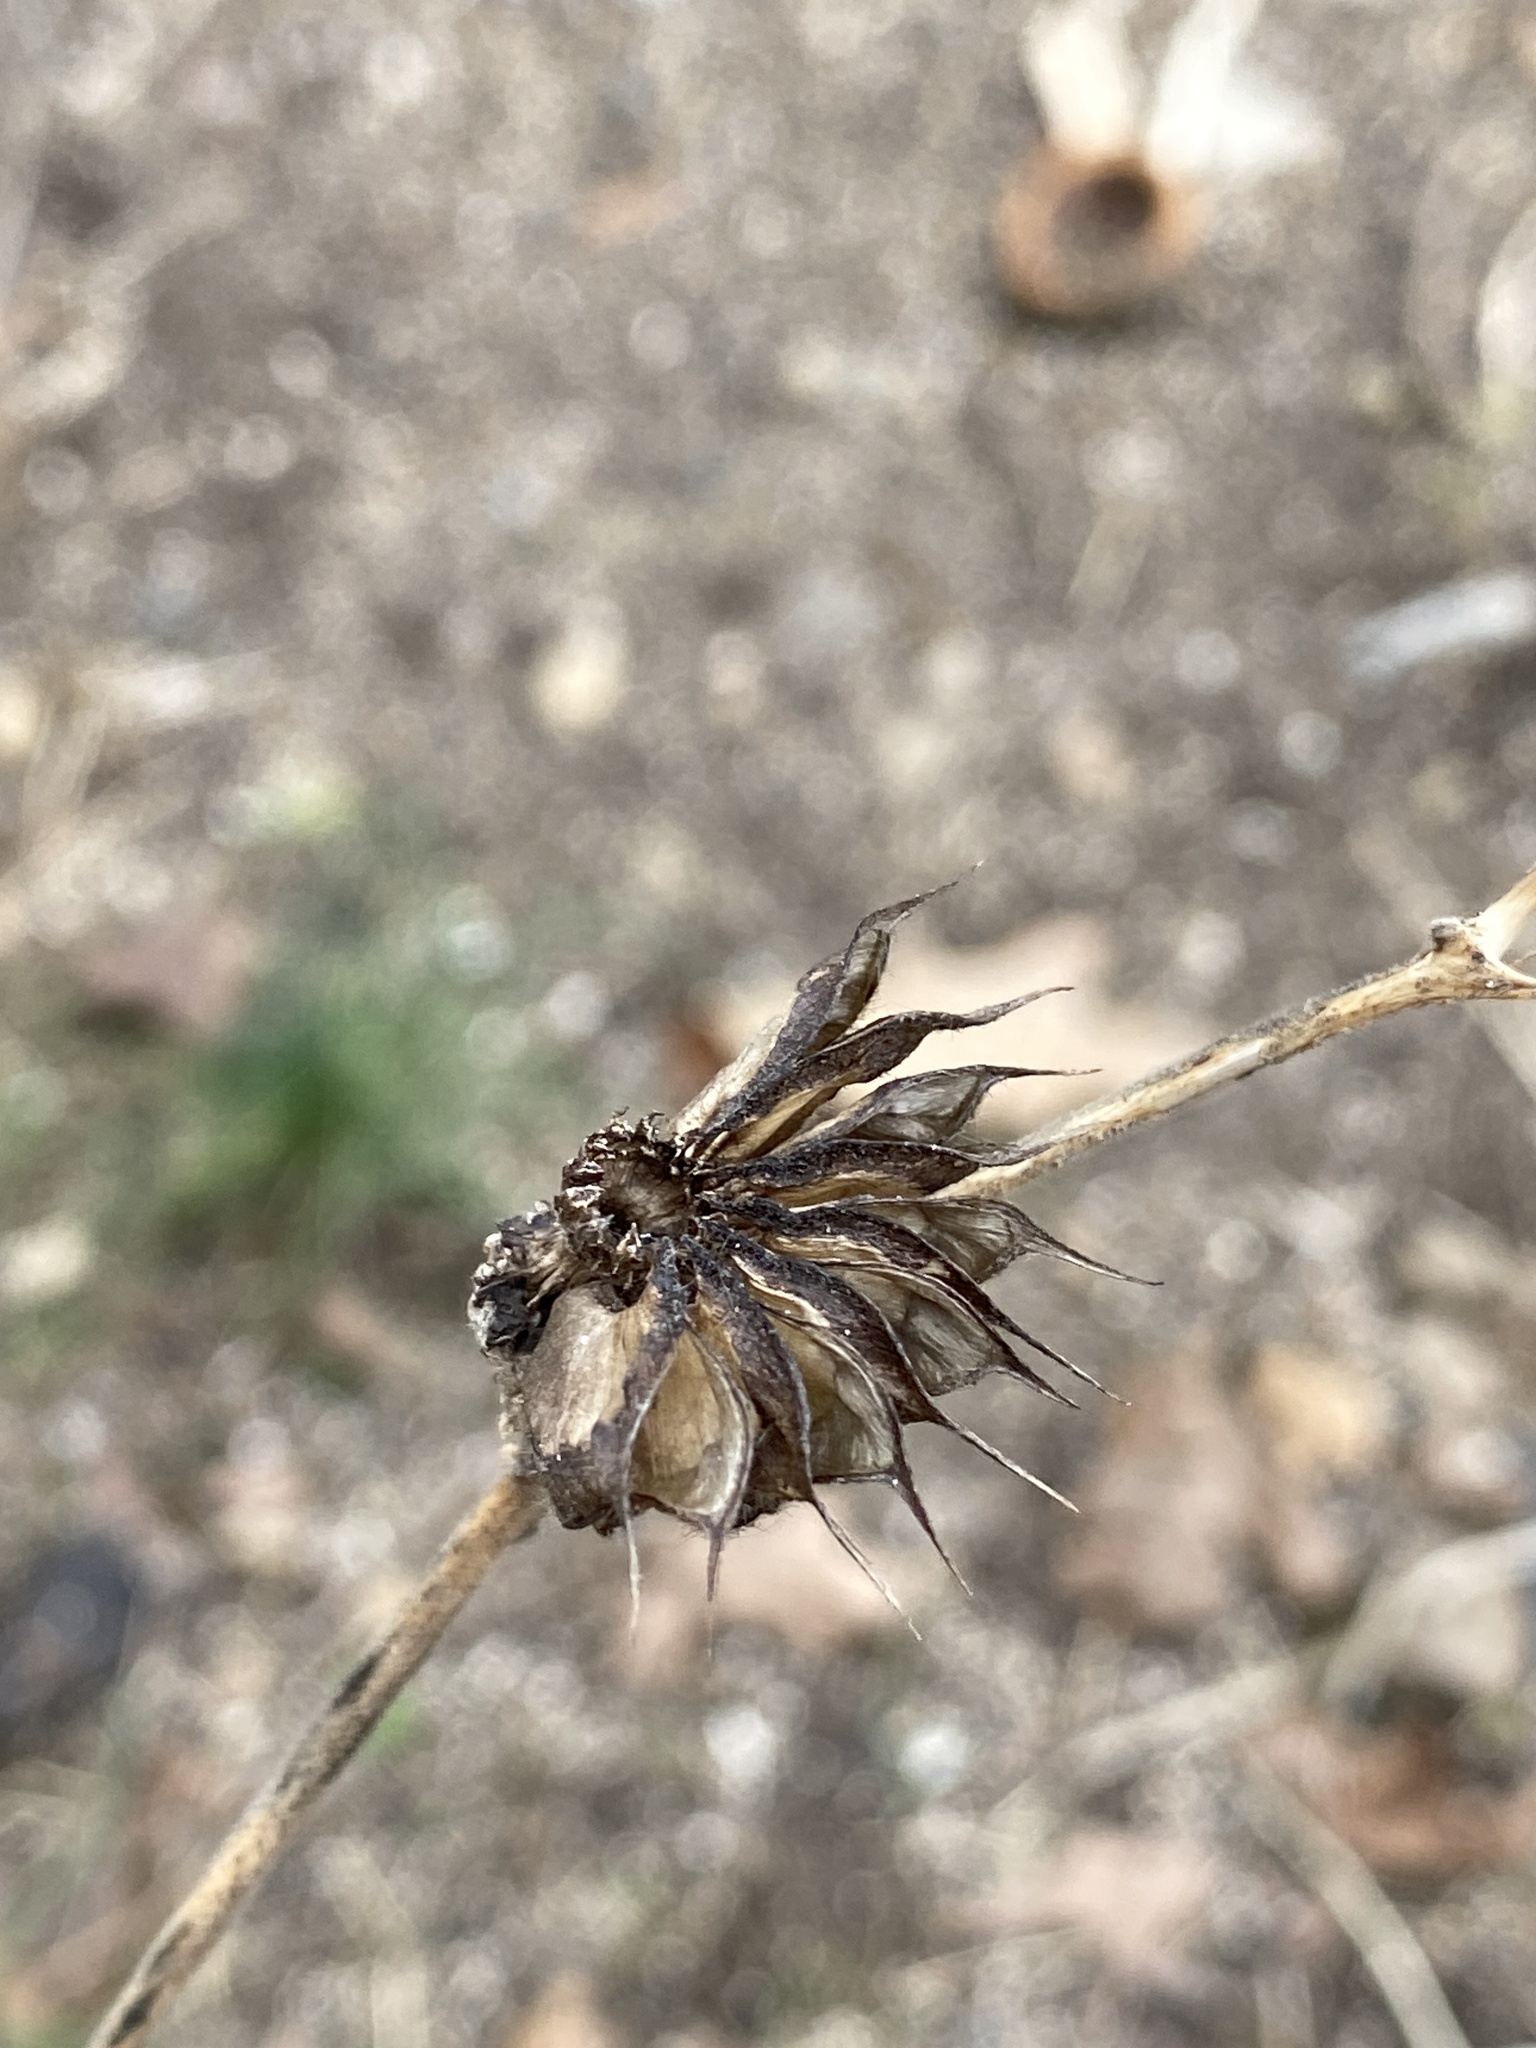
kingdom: Plantae
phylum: Tracheophyta
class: Magnoliopsida
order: Malvales
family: Malvaceae
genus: Abutilon
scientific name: Abutilon theophrasti
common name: Velvetleaf
